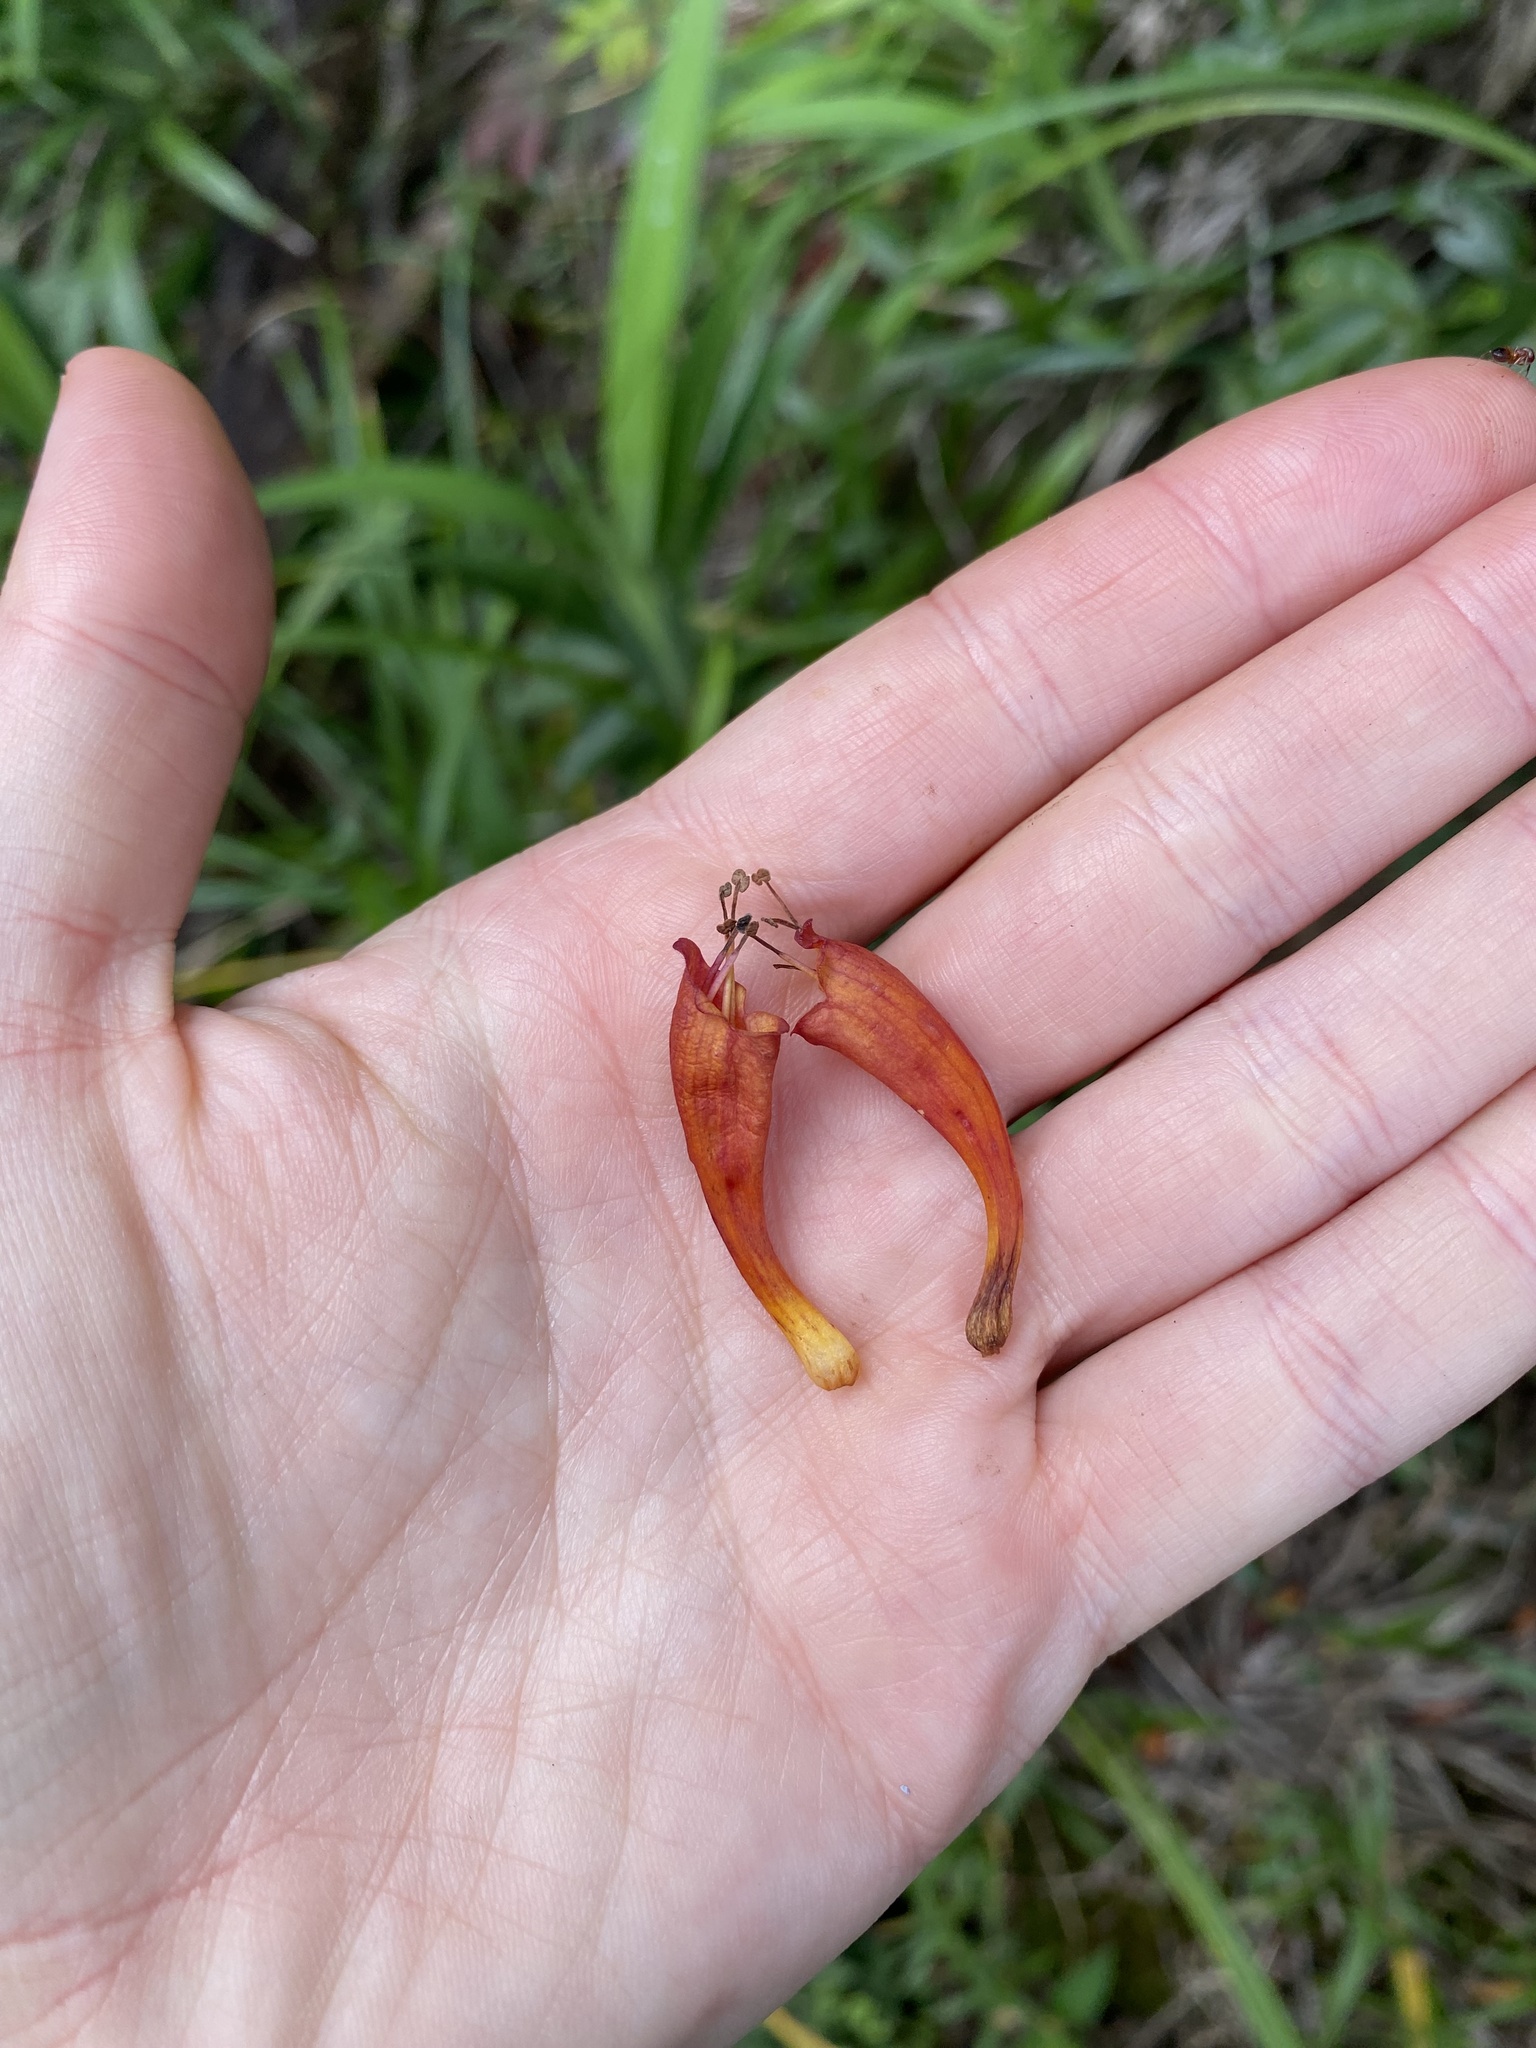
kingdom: Plantae
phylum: Tracheophyta
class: Magnoliopsida
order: Lamiales
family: Stilbaceae
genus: Halleria
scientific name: Halleria lucida
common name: Tree fuschia
